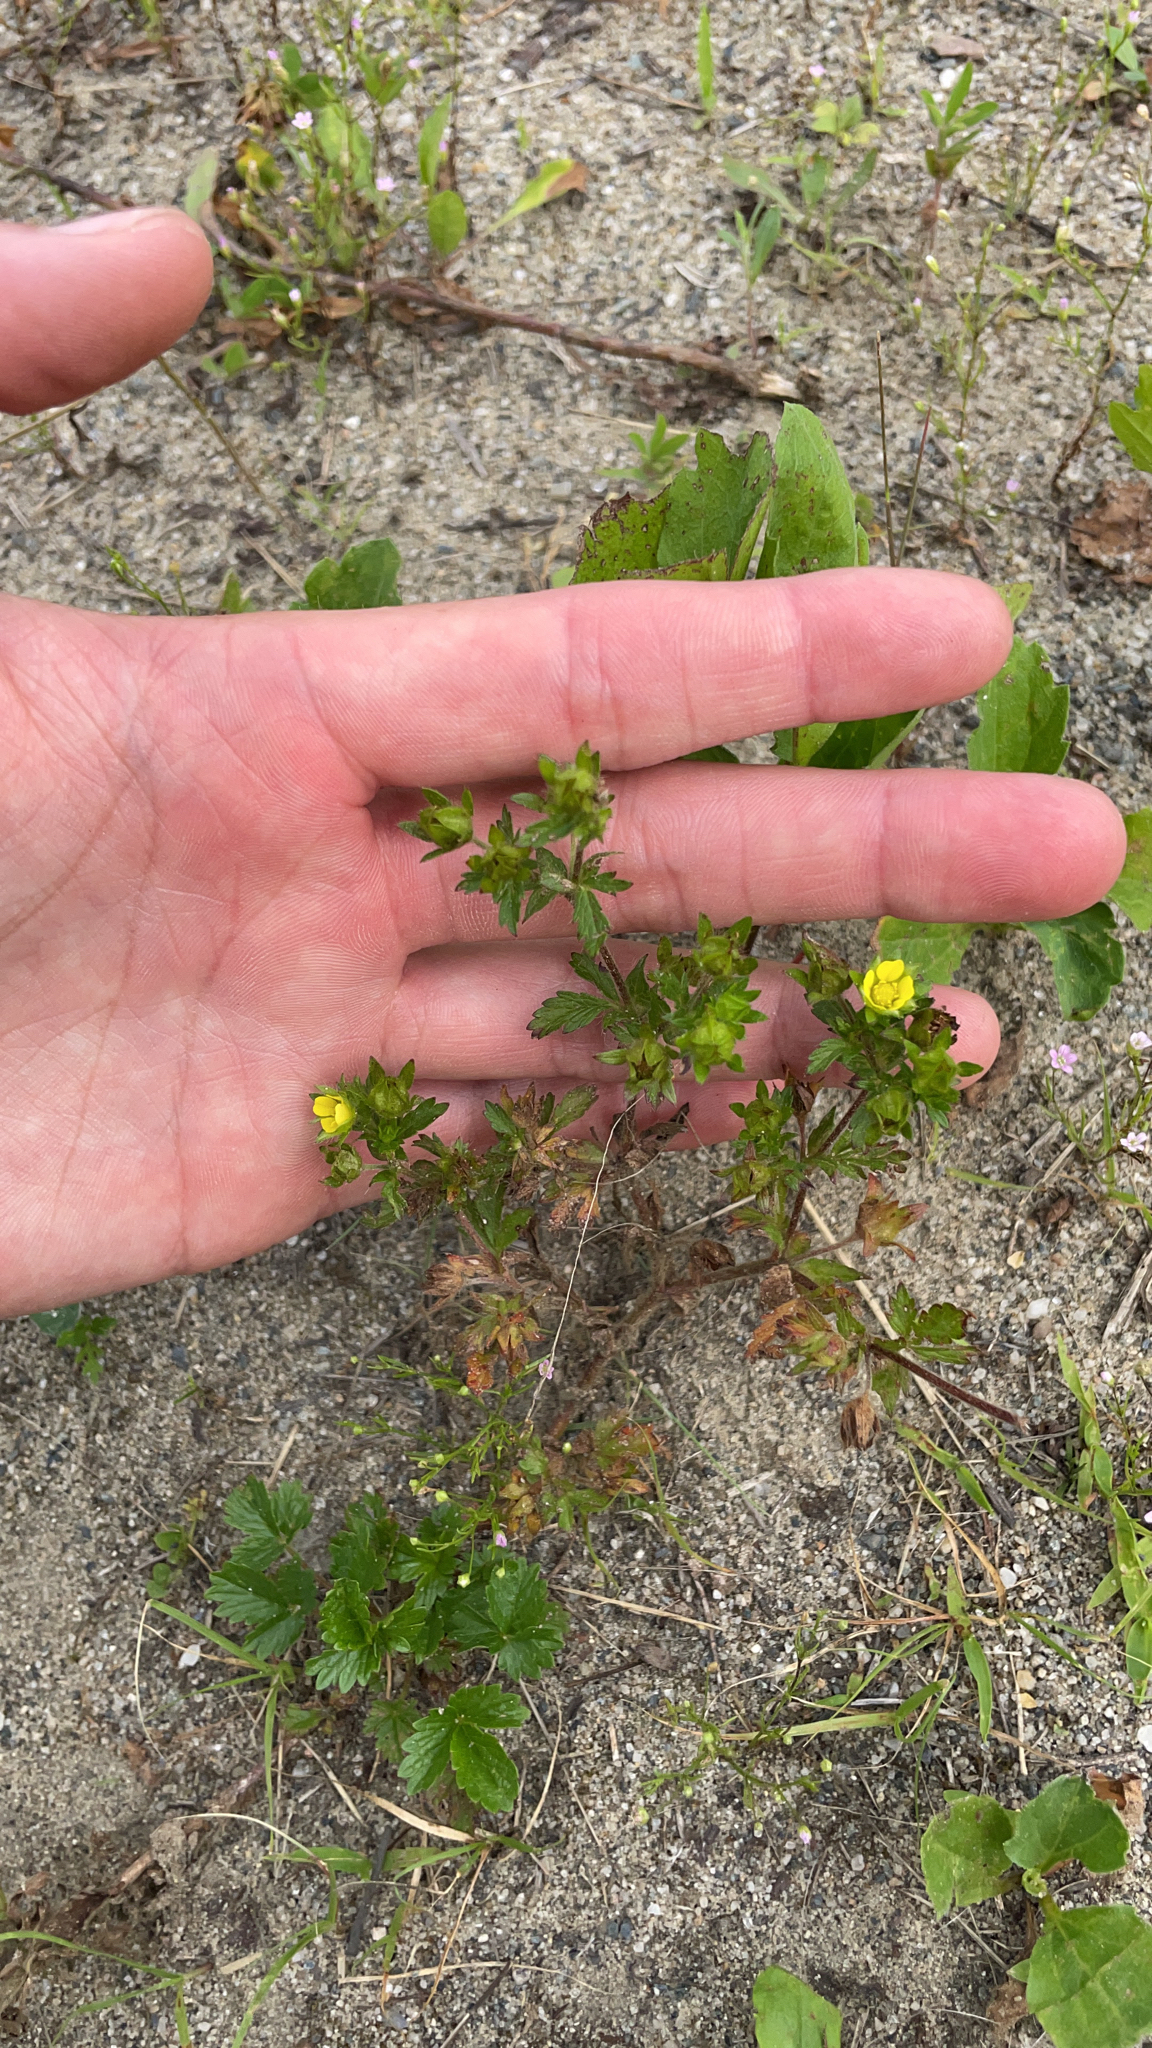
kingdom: Plantae
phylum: Tracheophyta
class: Magnoliopsida
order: Rosales
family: Rosaceae
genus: Potentilla
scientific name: Potentilla norvegica
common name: Ternate-leaved cinquefoil
